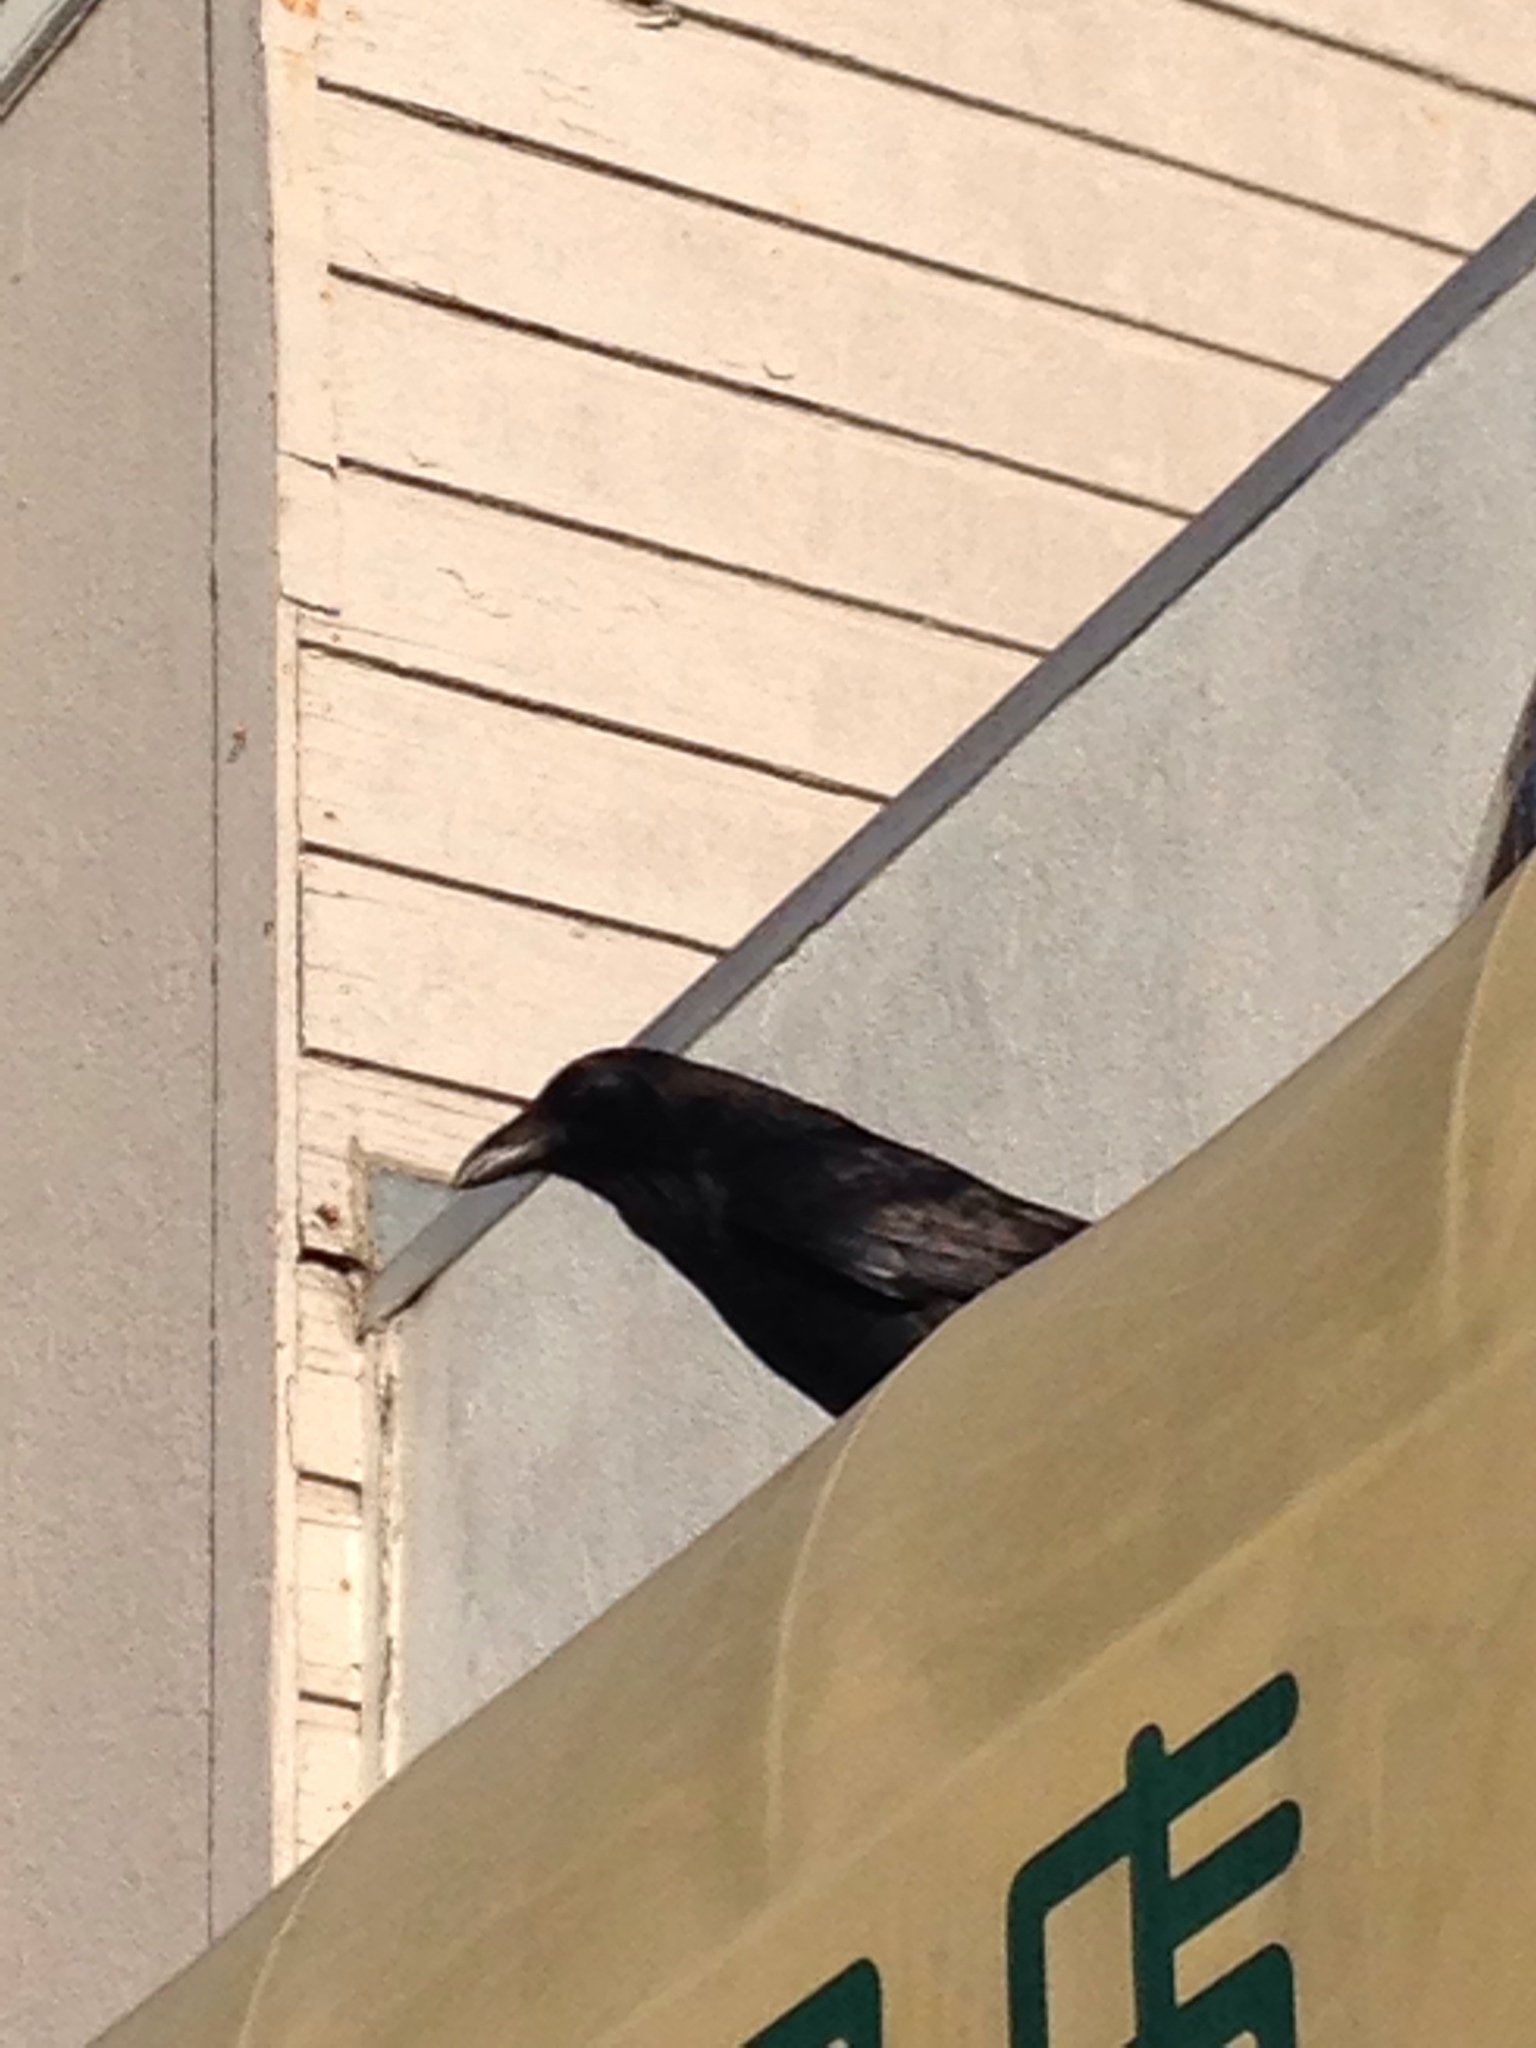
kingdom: Animalia
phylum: Chordata
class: Aves
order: Passeriformes
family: Corvidae
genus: Corvus
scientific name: Corvus corax
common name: Common raven
